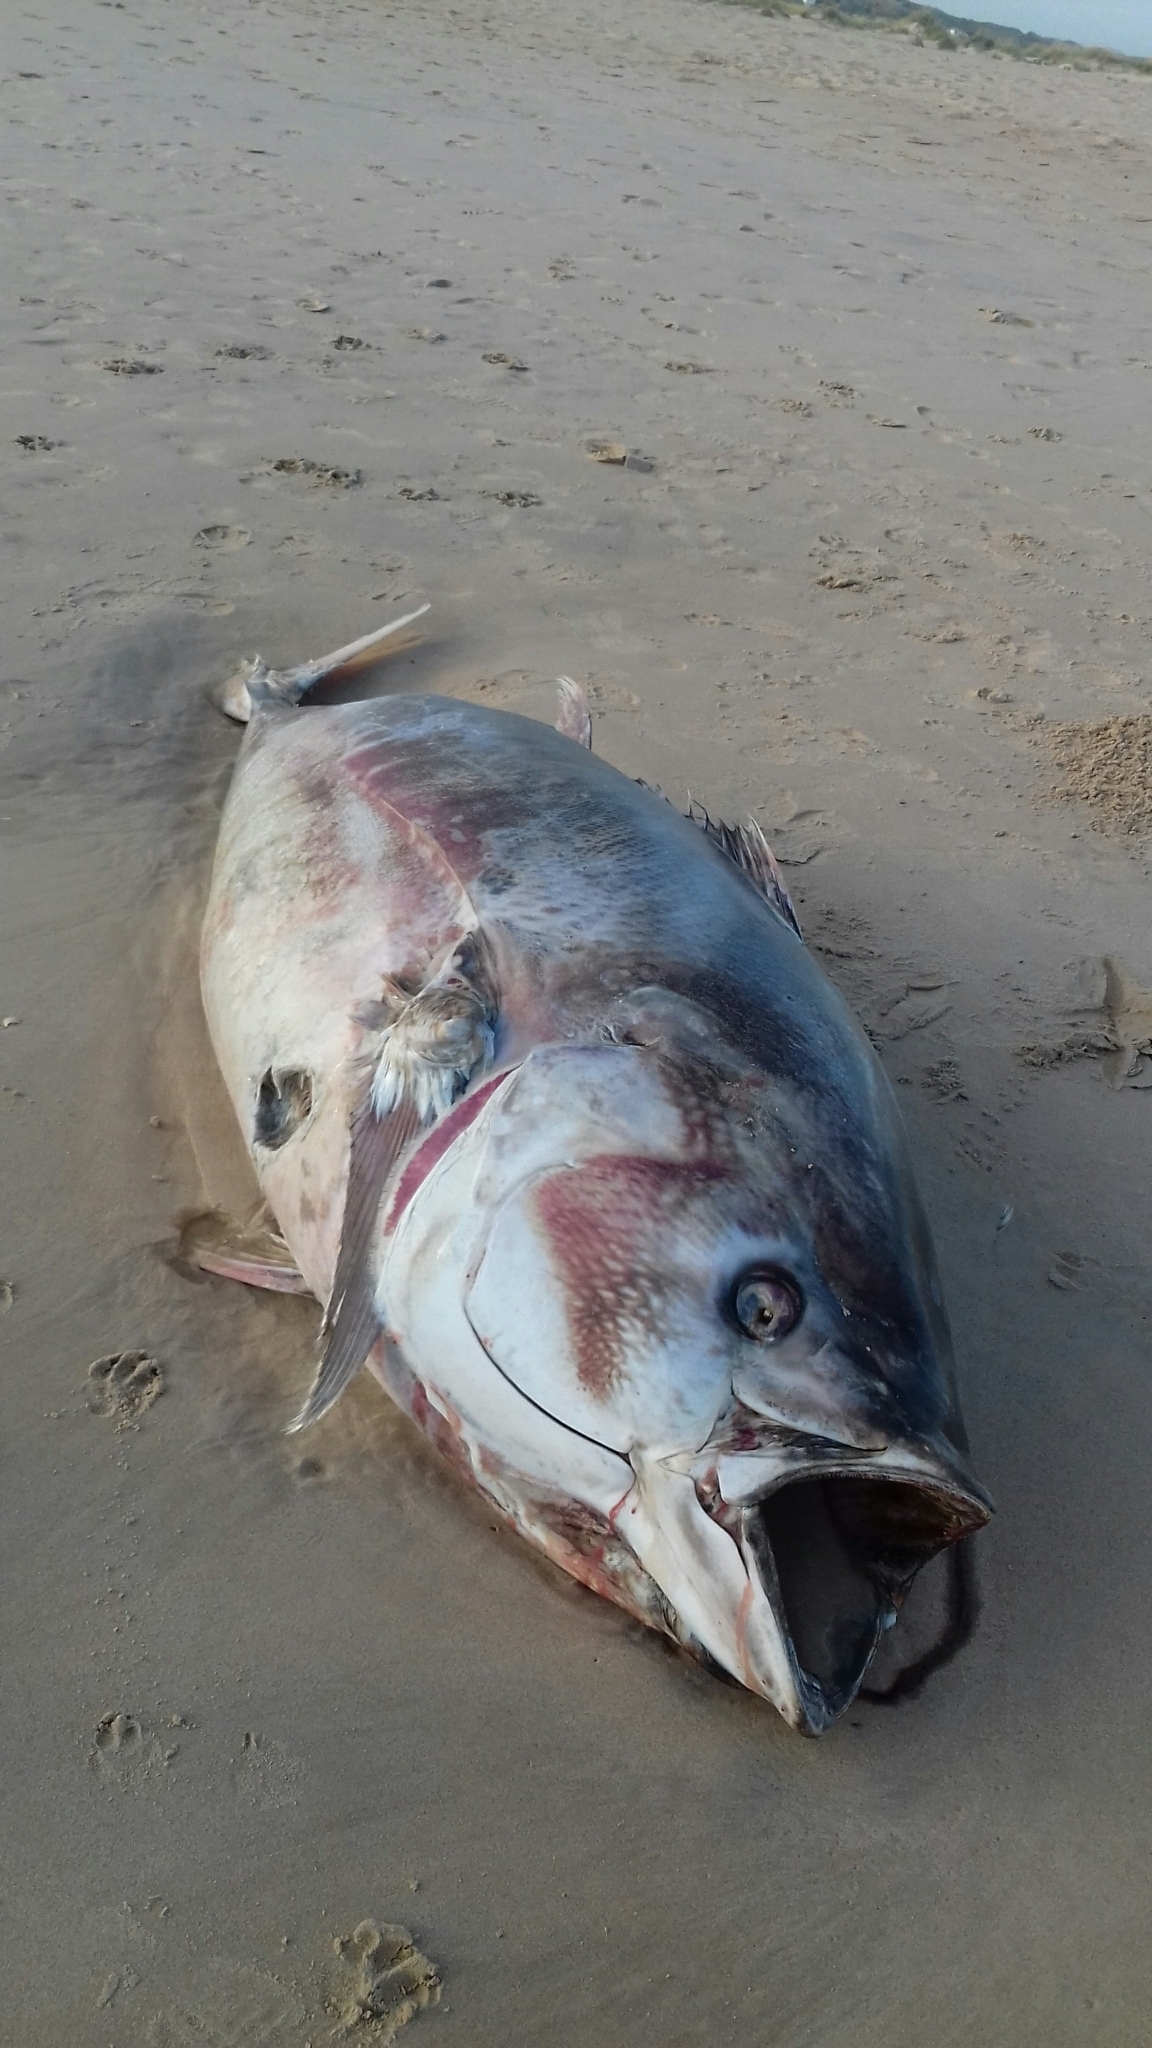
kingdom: Animalia
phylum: Chordata
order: Perciformes
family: Scombridae
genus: Thunnus
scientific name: Thunnus thynnus
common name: Bluefin tuna
